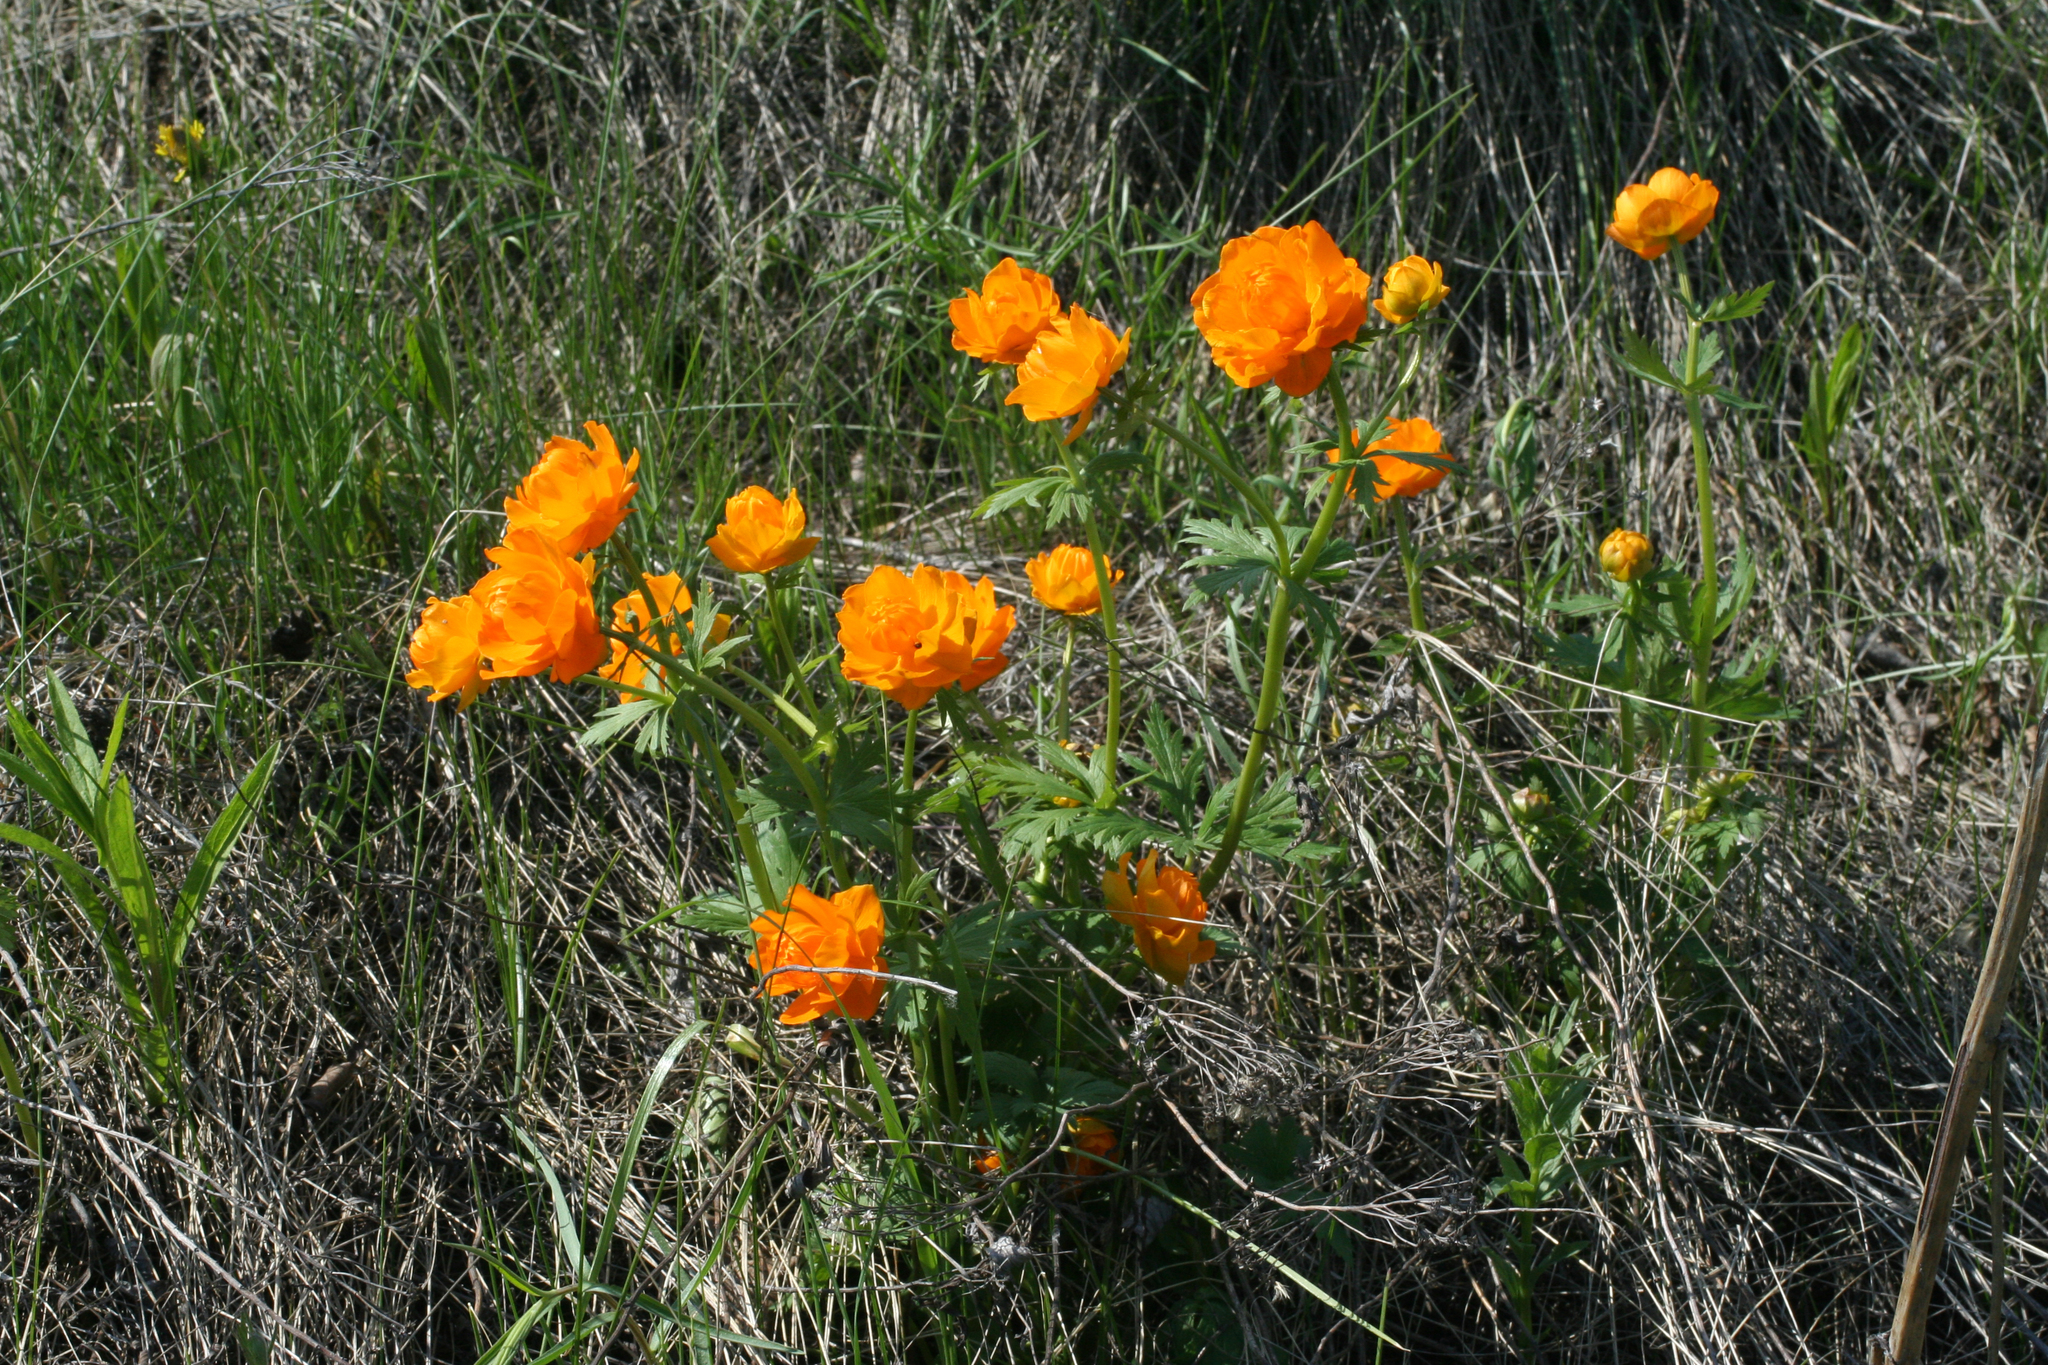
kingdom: Plantae
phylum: Tracheophyta
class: Magnoliopsida
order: Ranunculales
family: Ranunculaceae
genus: Trollius
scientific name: Trollius asiaticus
